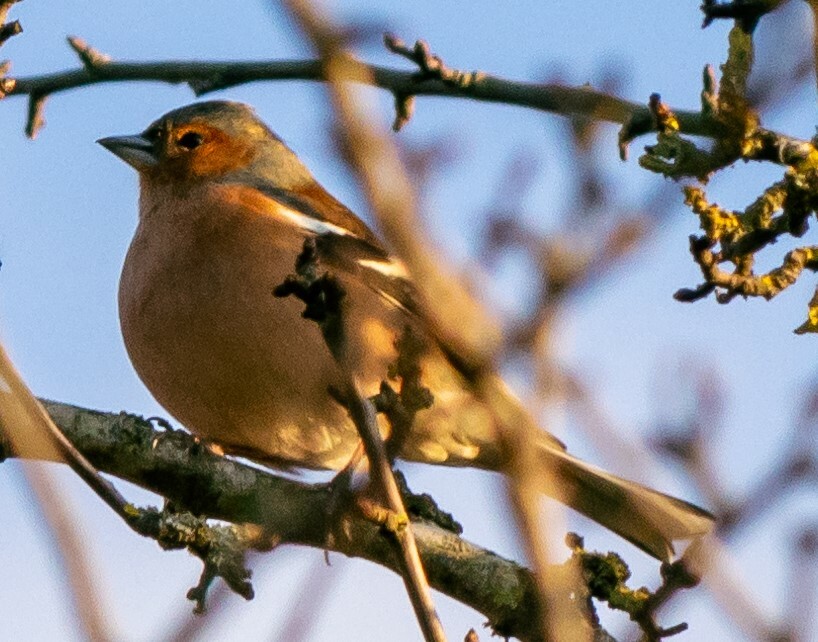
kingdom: Animalia
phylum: Chordata
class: Aves
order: Passeriformes
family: Fringillidae
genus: Fringilla
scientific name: Fringilla coelebs
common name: Common chaffinch
